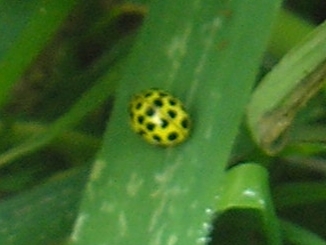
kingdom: Animalia
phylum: Arthropoda
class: Insecta
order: Coleoptera
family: Coccinellidae
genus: Psyllobora
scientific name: Psyllobora vigintiduopunctata
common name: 22-spot ladybird
